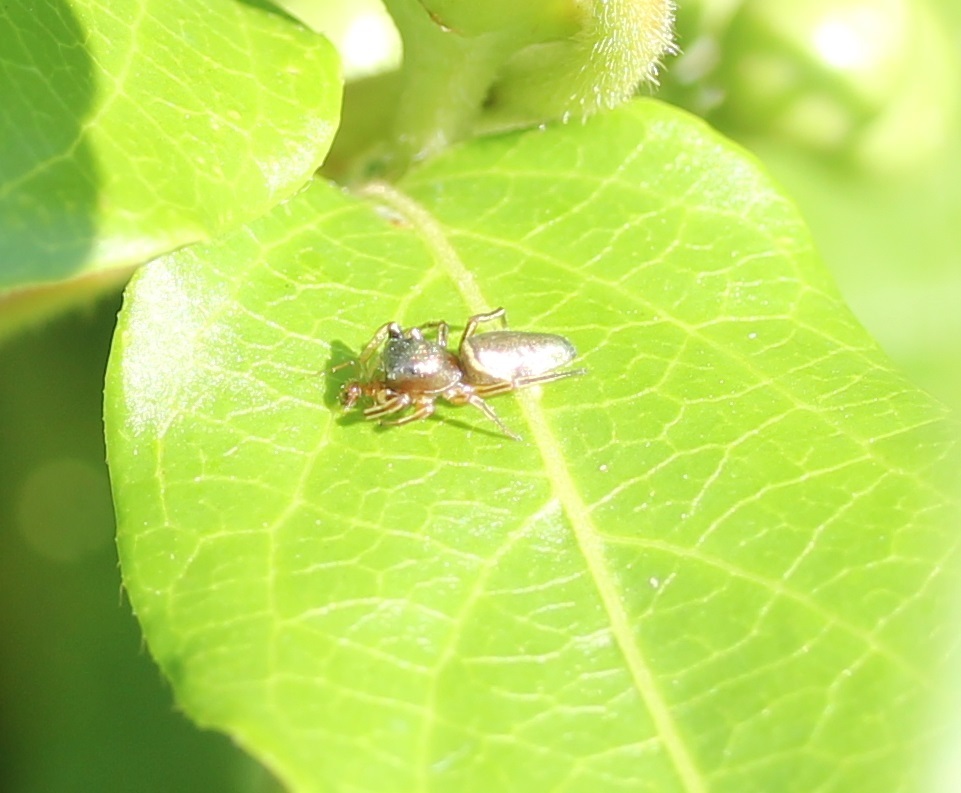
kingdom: Animalia
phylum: Arthropoda
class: Arachnida
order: Araneae
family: Salticidae
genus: Tutelina
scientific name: Tutelina elegans
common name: Thin-spined jumping spider
